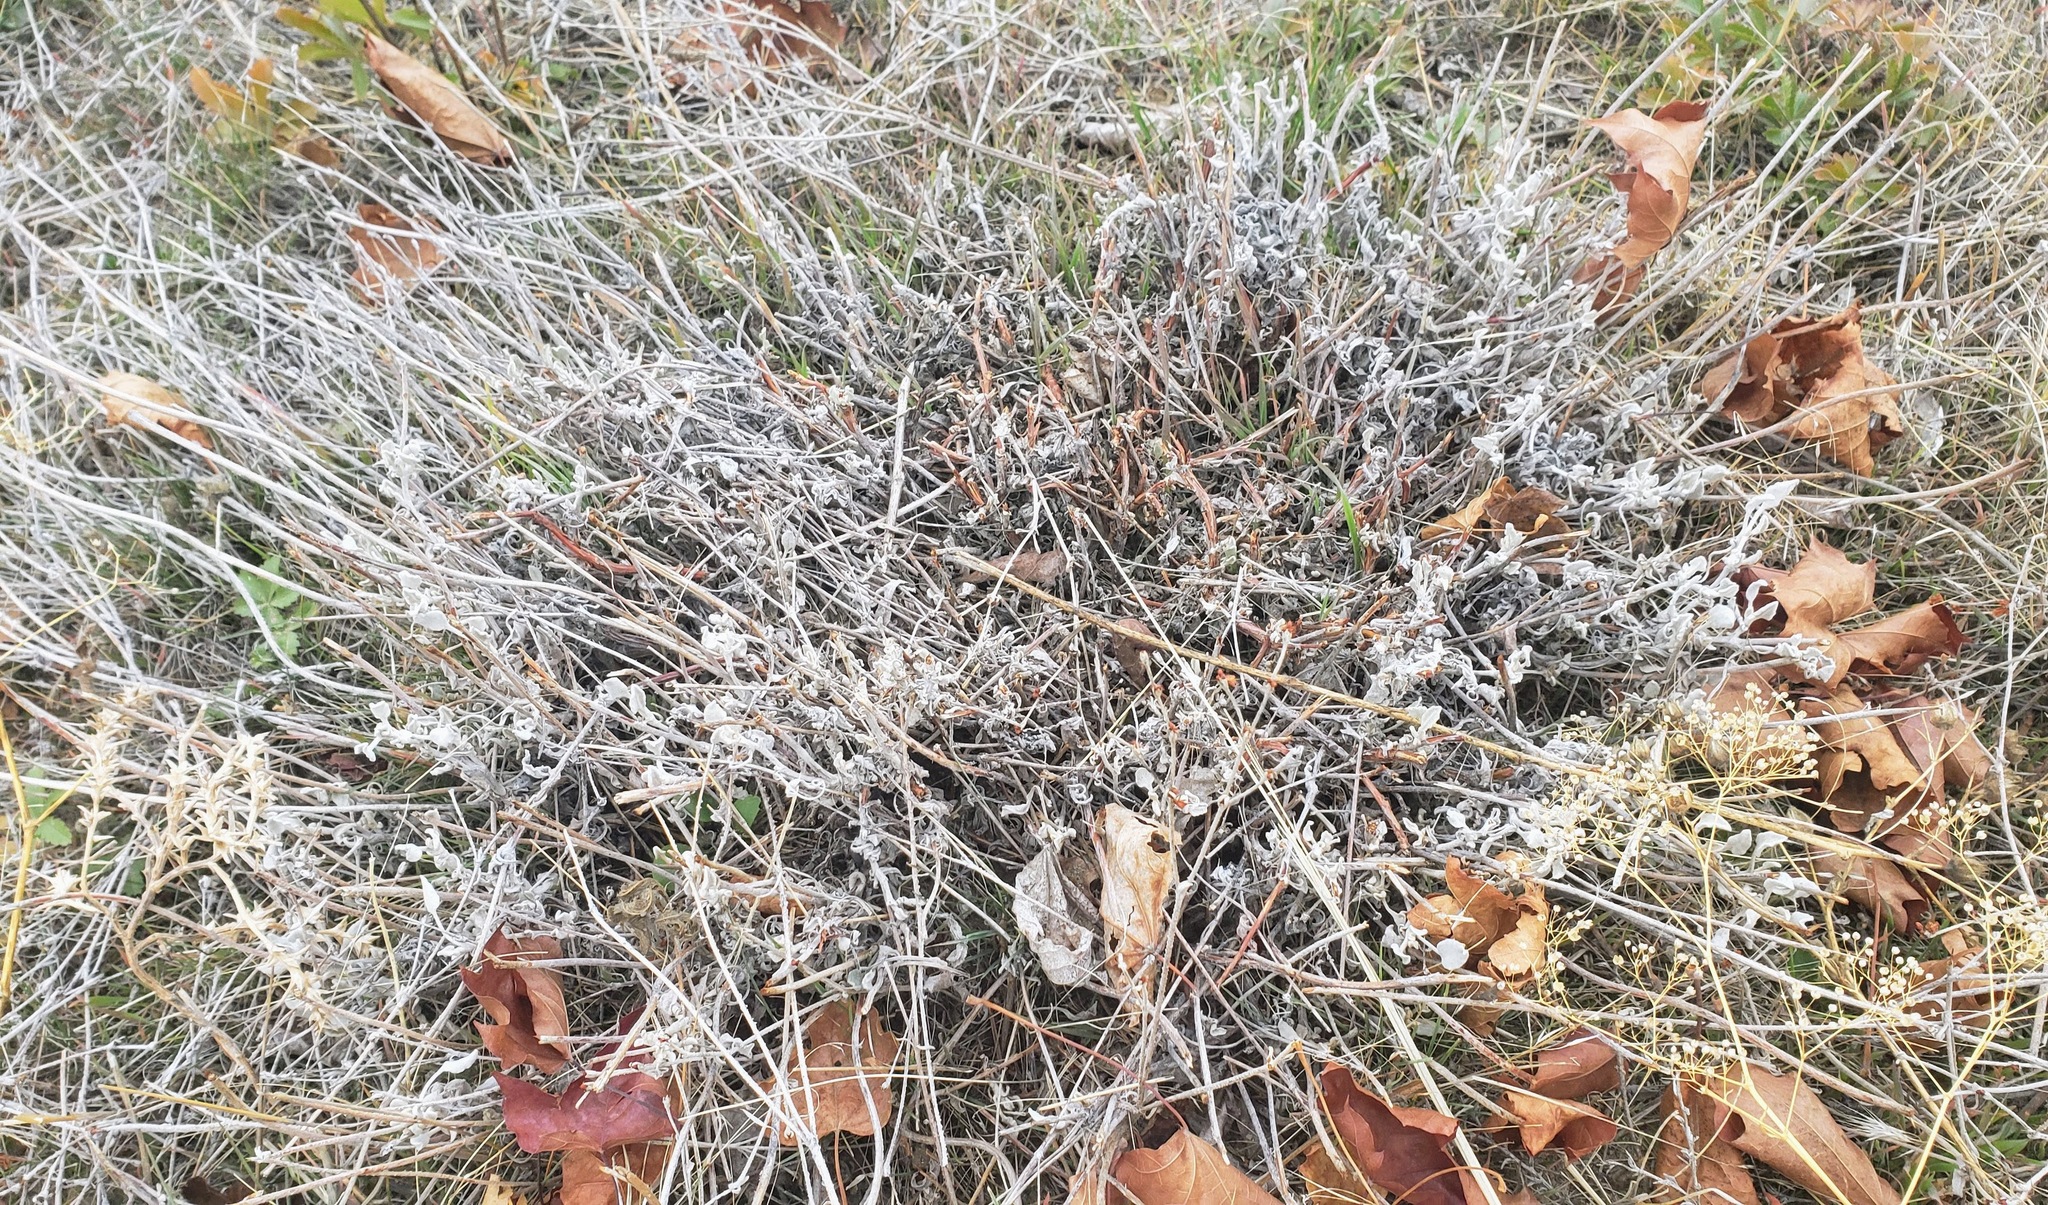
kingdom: Plantae
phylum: Tracheophyta
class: Magnoliopsida
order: Caryophyllales
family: Polygonaceae
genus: Eriogonum
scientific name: Eriogonum niveum
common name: Snow wild buckwheat
